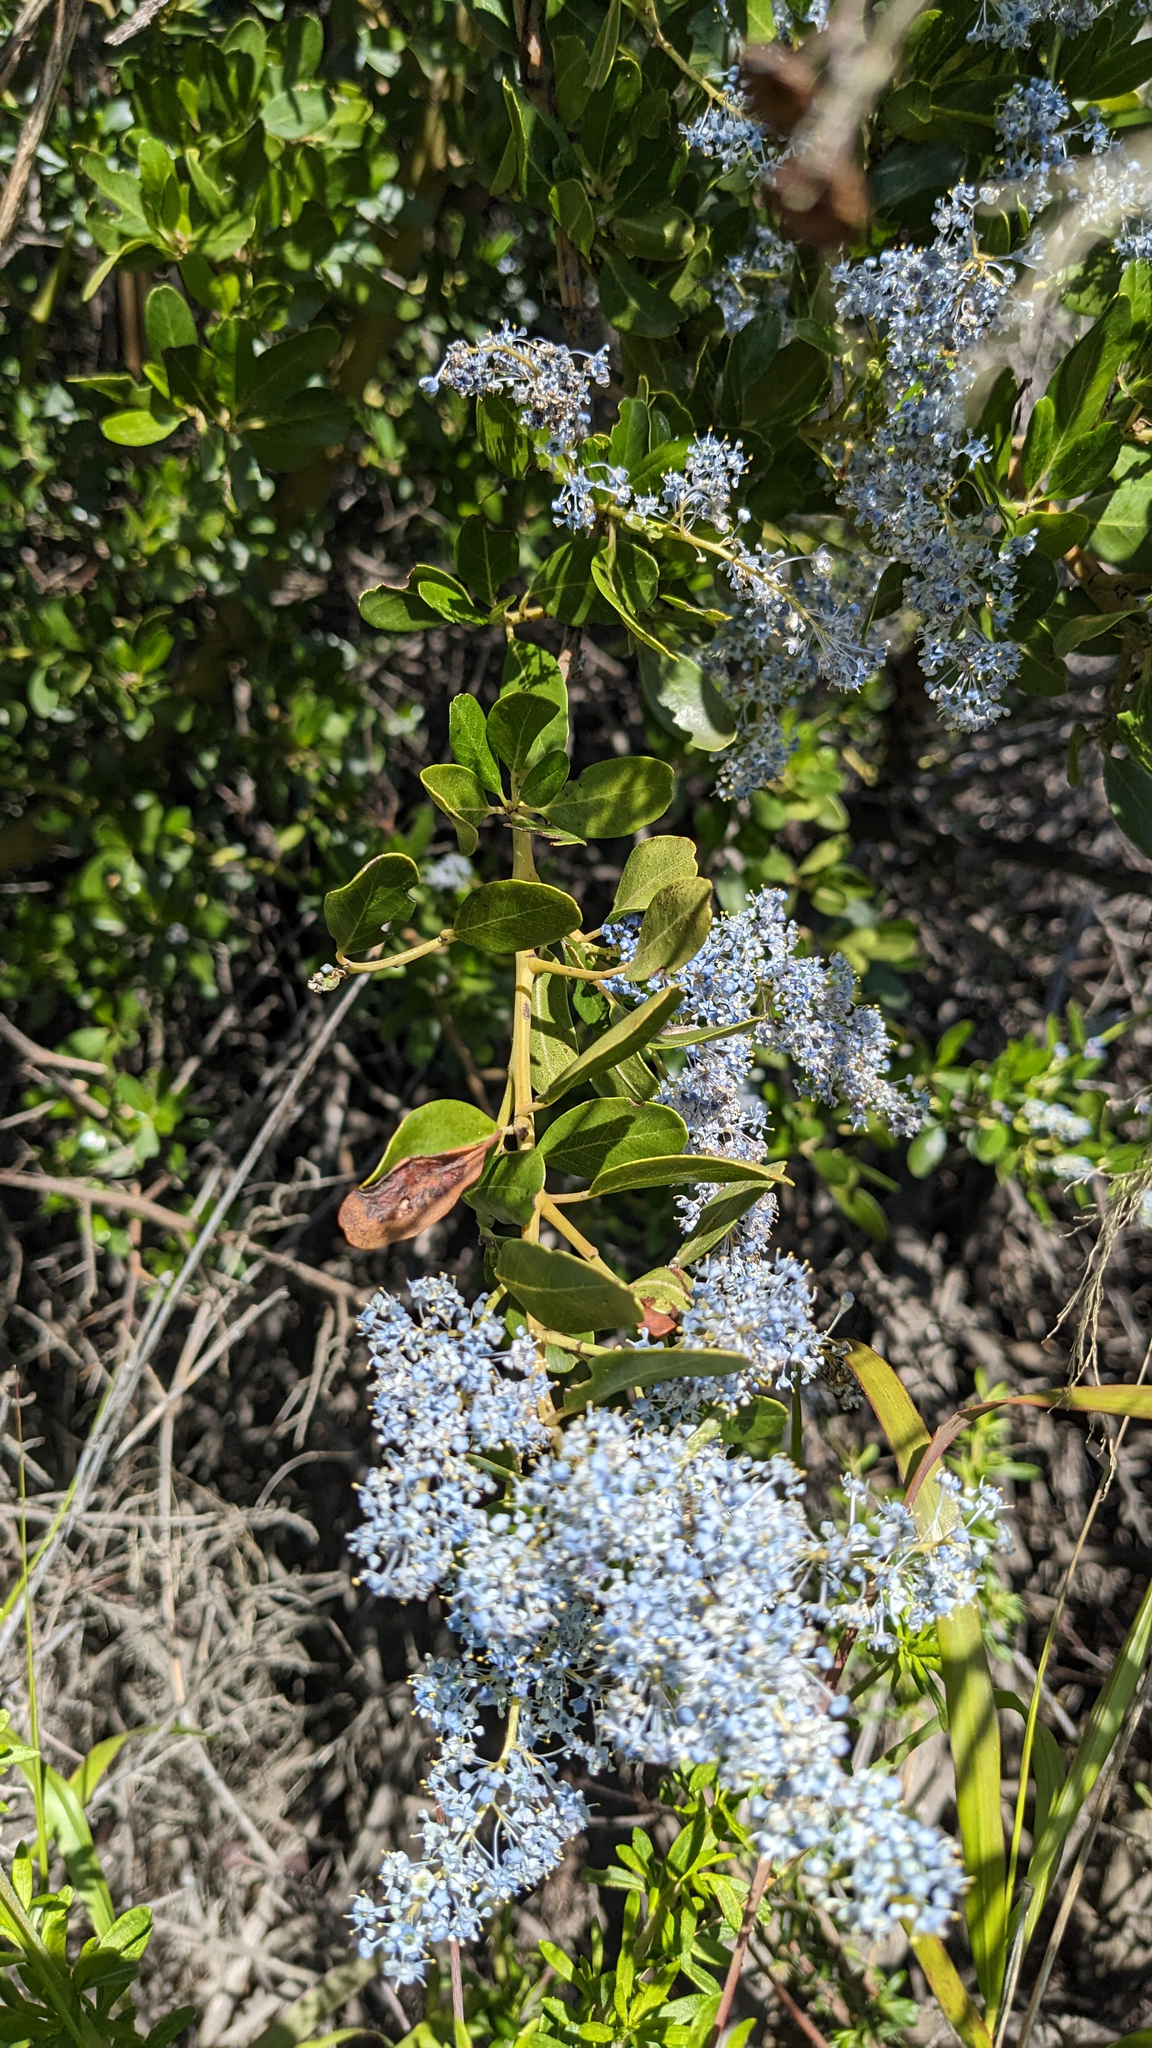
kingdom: Plantae
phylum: Tracheophyta
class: Magnoliopsida
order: Rosales
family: Rhamnaceae
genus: Ceanothus
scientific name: Ceanothus spinosus
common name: Greenbark whitethorn
